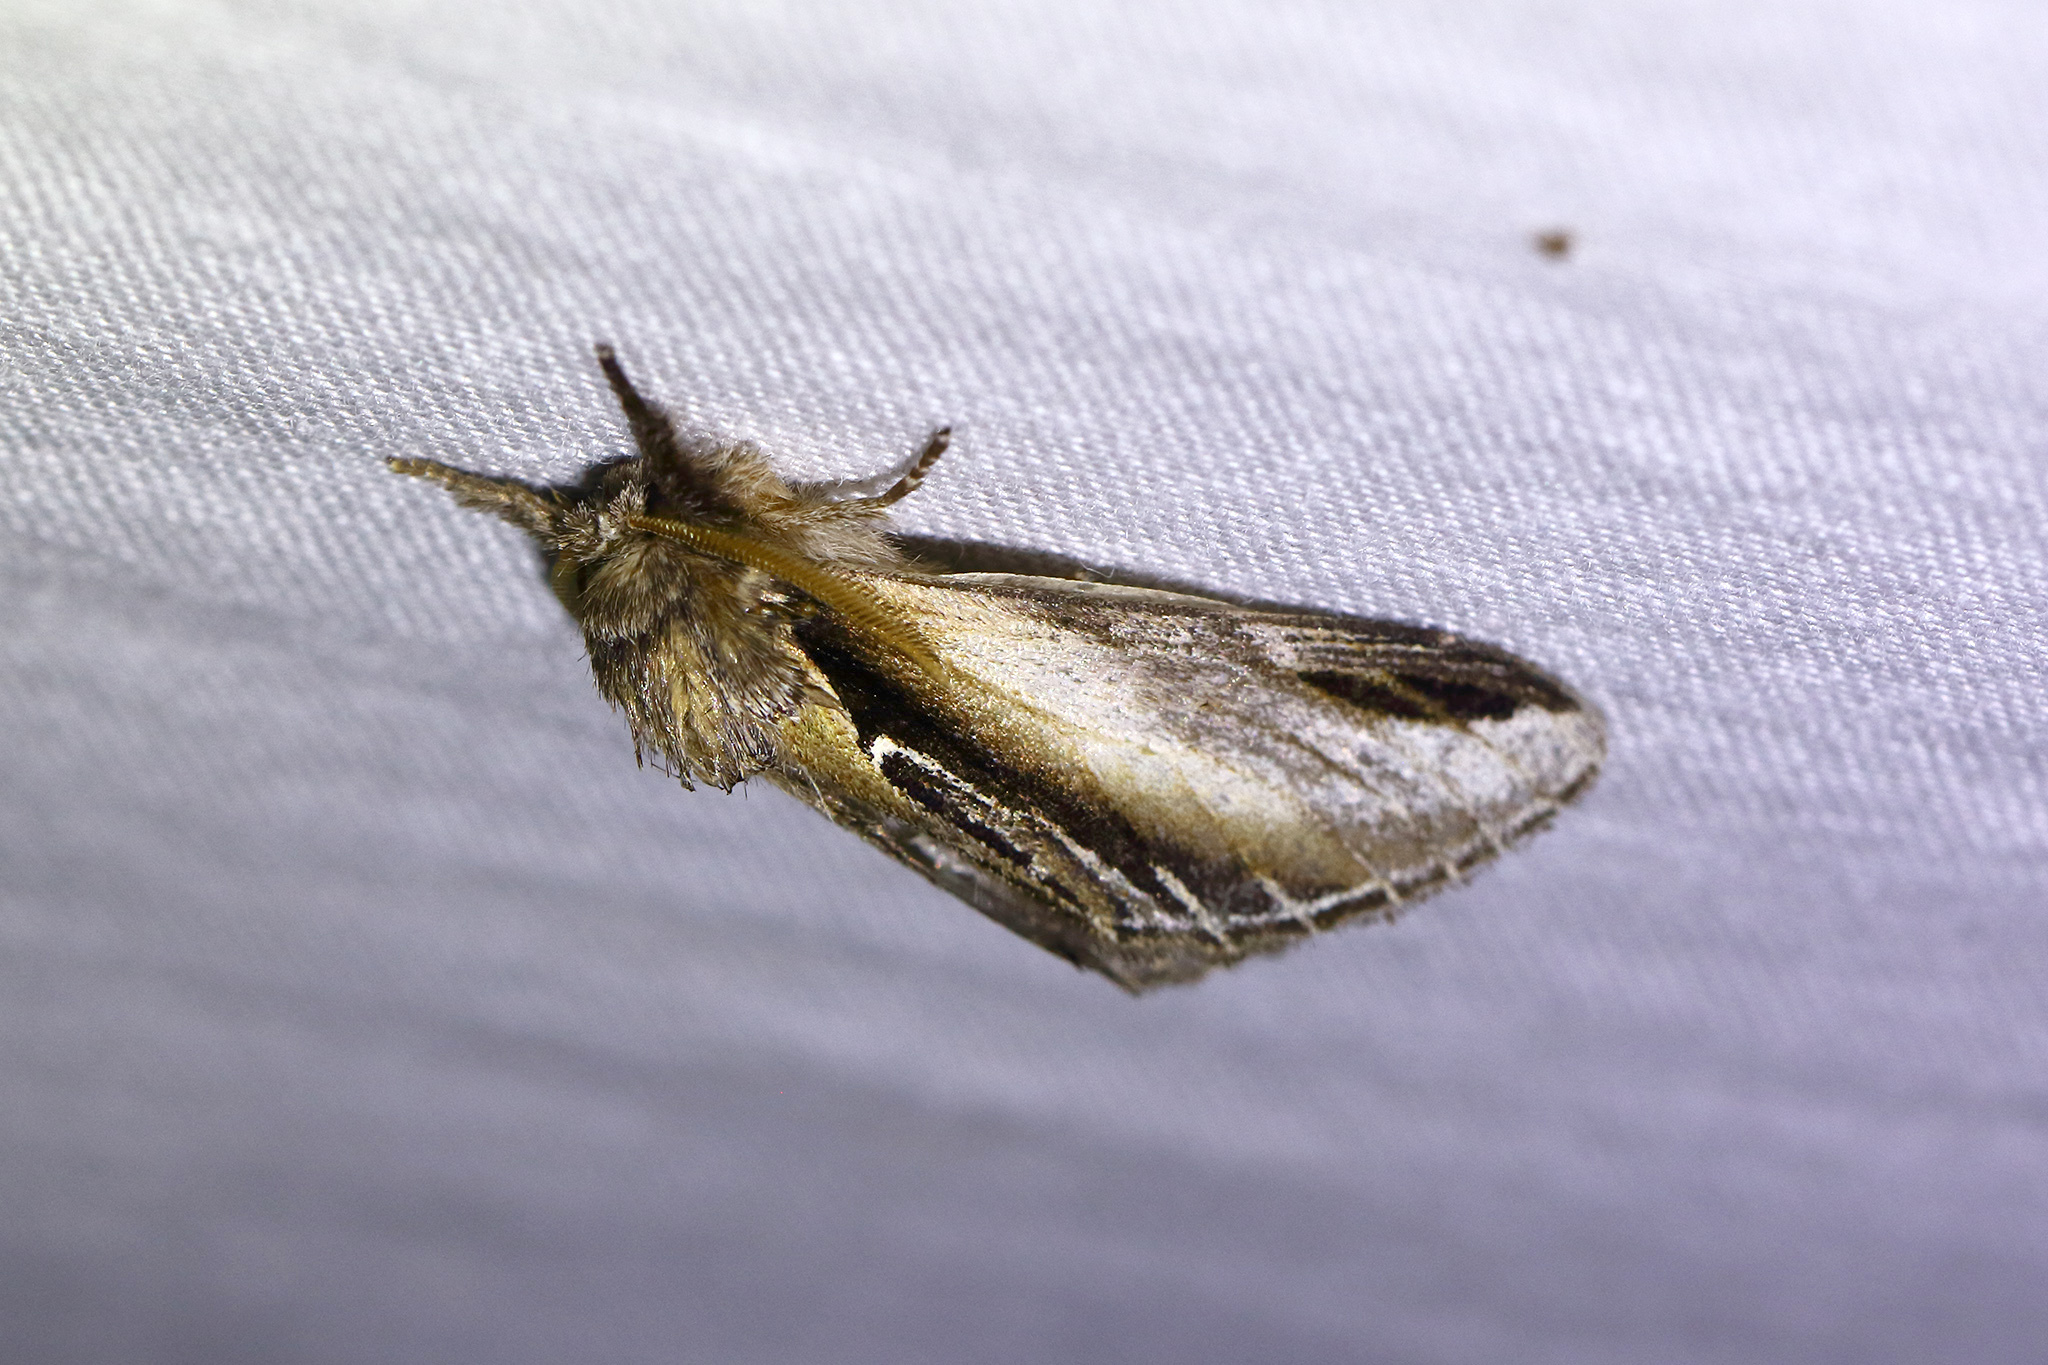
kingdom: Animalia
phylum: Arthropoda
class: Insecta
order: Lepidoptera
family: Notodontidae
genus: Pheosia
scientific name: Pheosia tremula
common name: Swallow prominent
